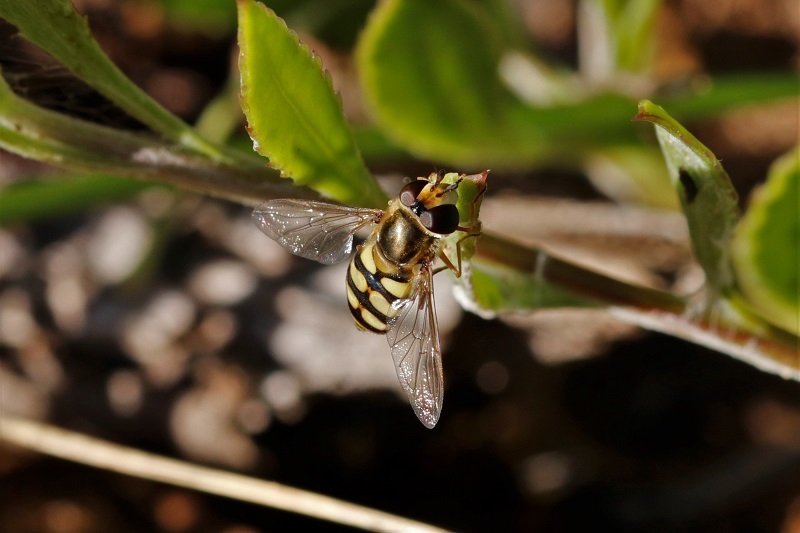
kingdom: Animalia
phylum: Arthropoda
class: Insecta
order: Diptera
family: Syrphidae
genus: Eupeodes
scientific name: Eupeodes corollae
